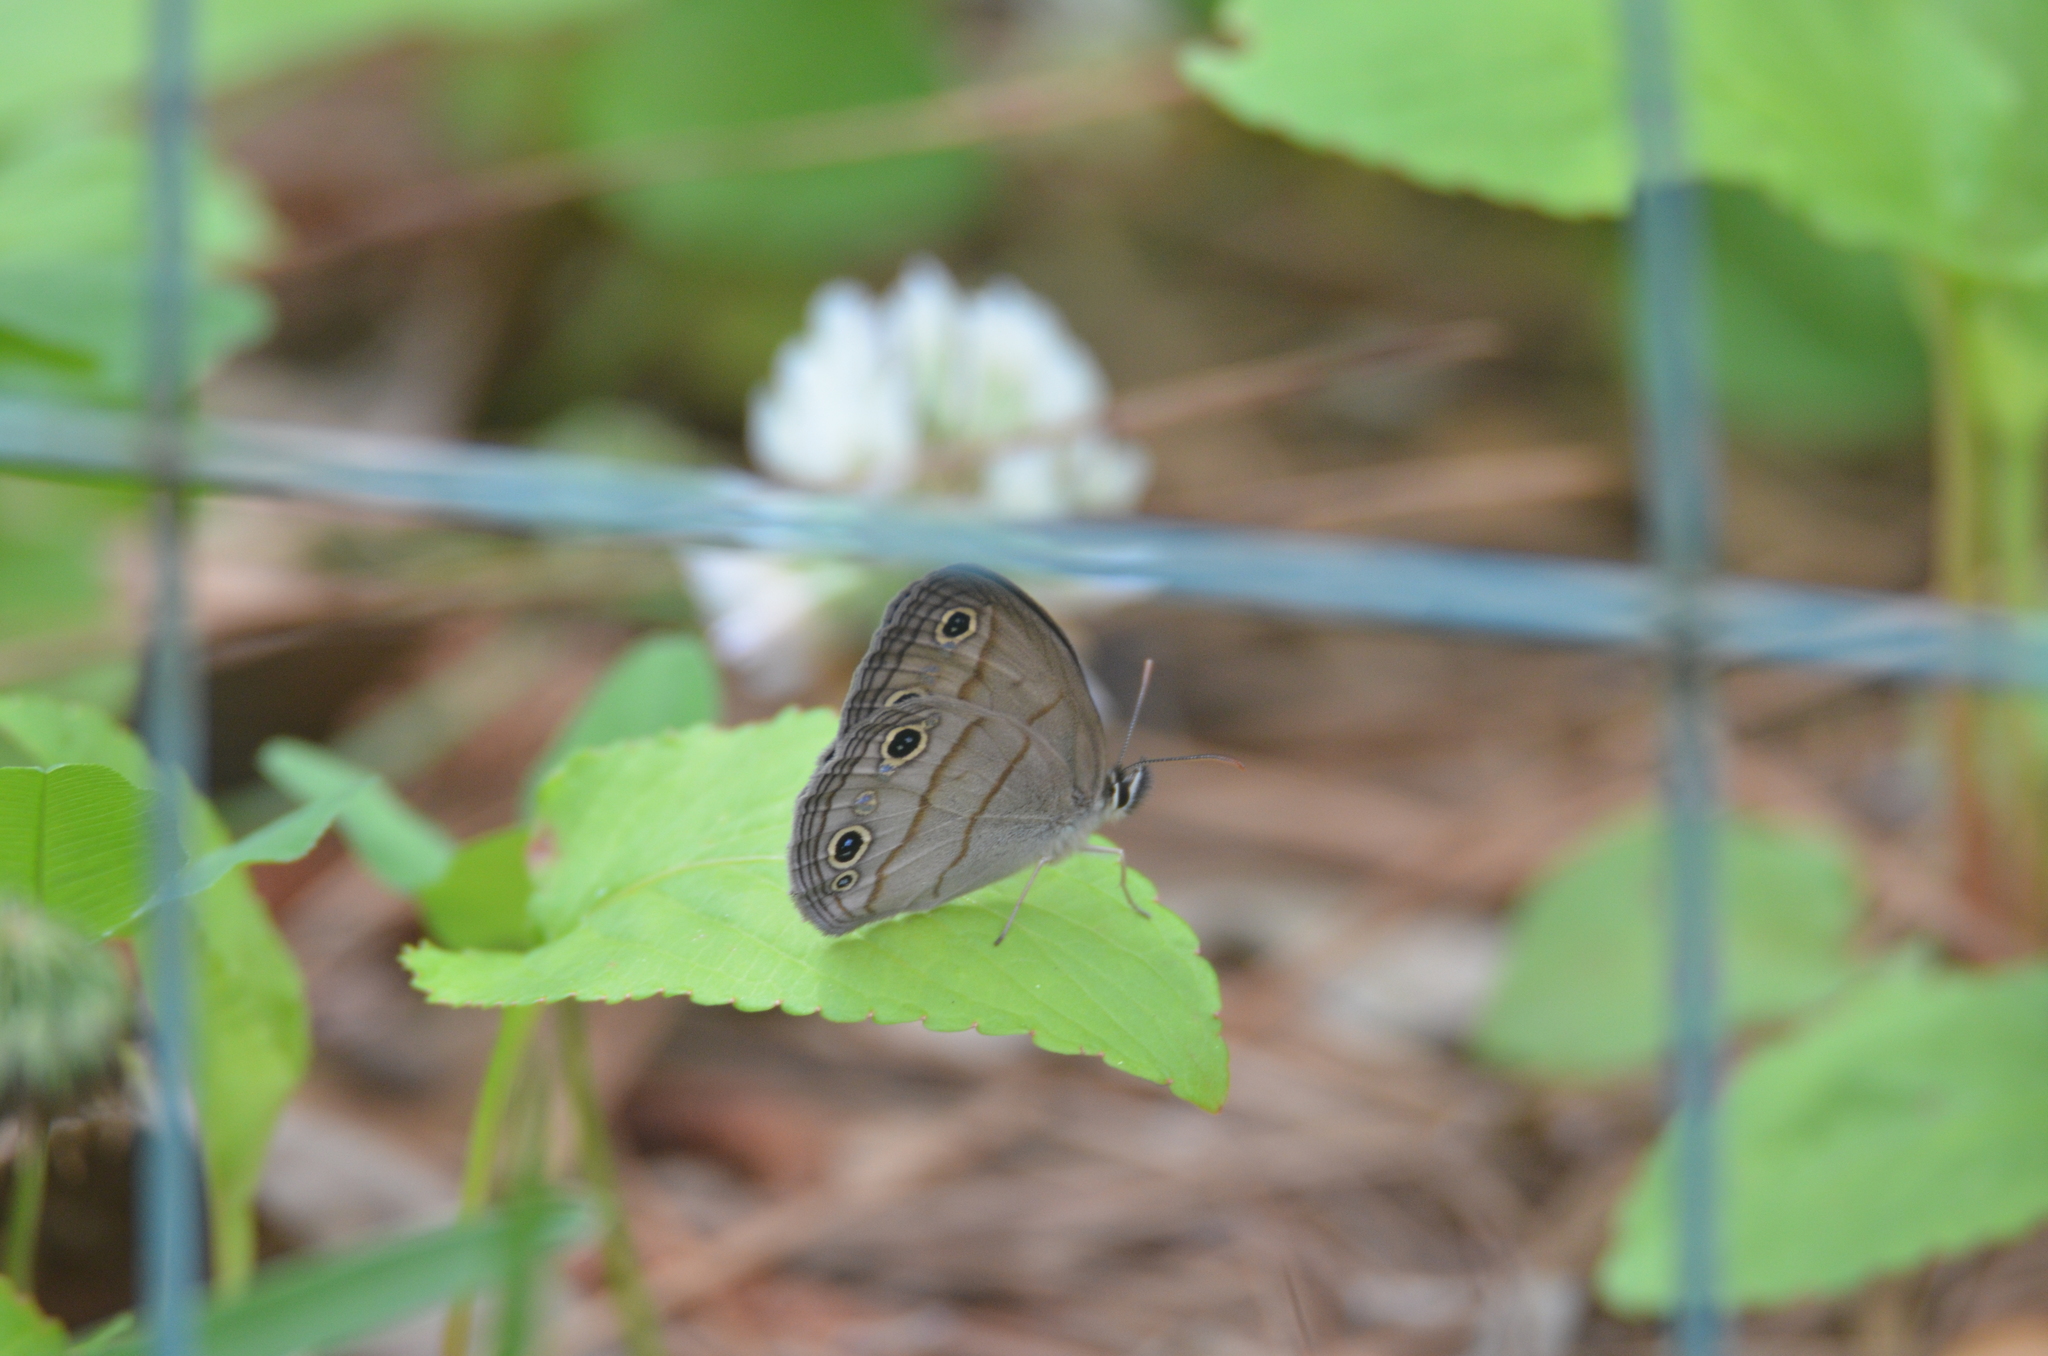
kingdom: Animalia
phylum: Arthropoda
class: Insecta
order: Lepidoptera
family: Nymphalidae
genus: Euptychia
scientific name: Euptychia cymela
